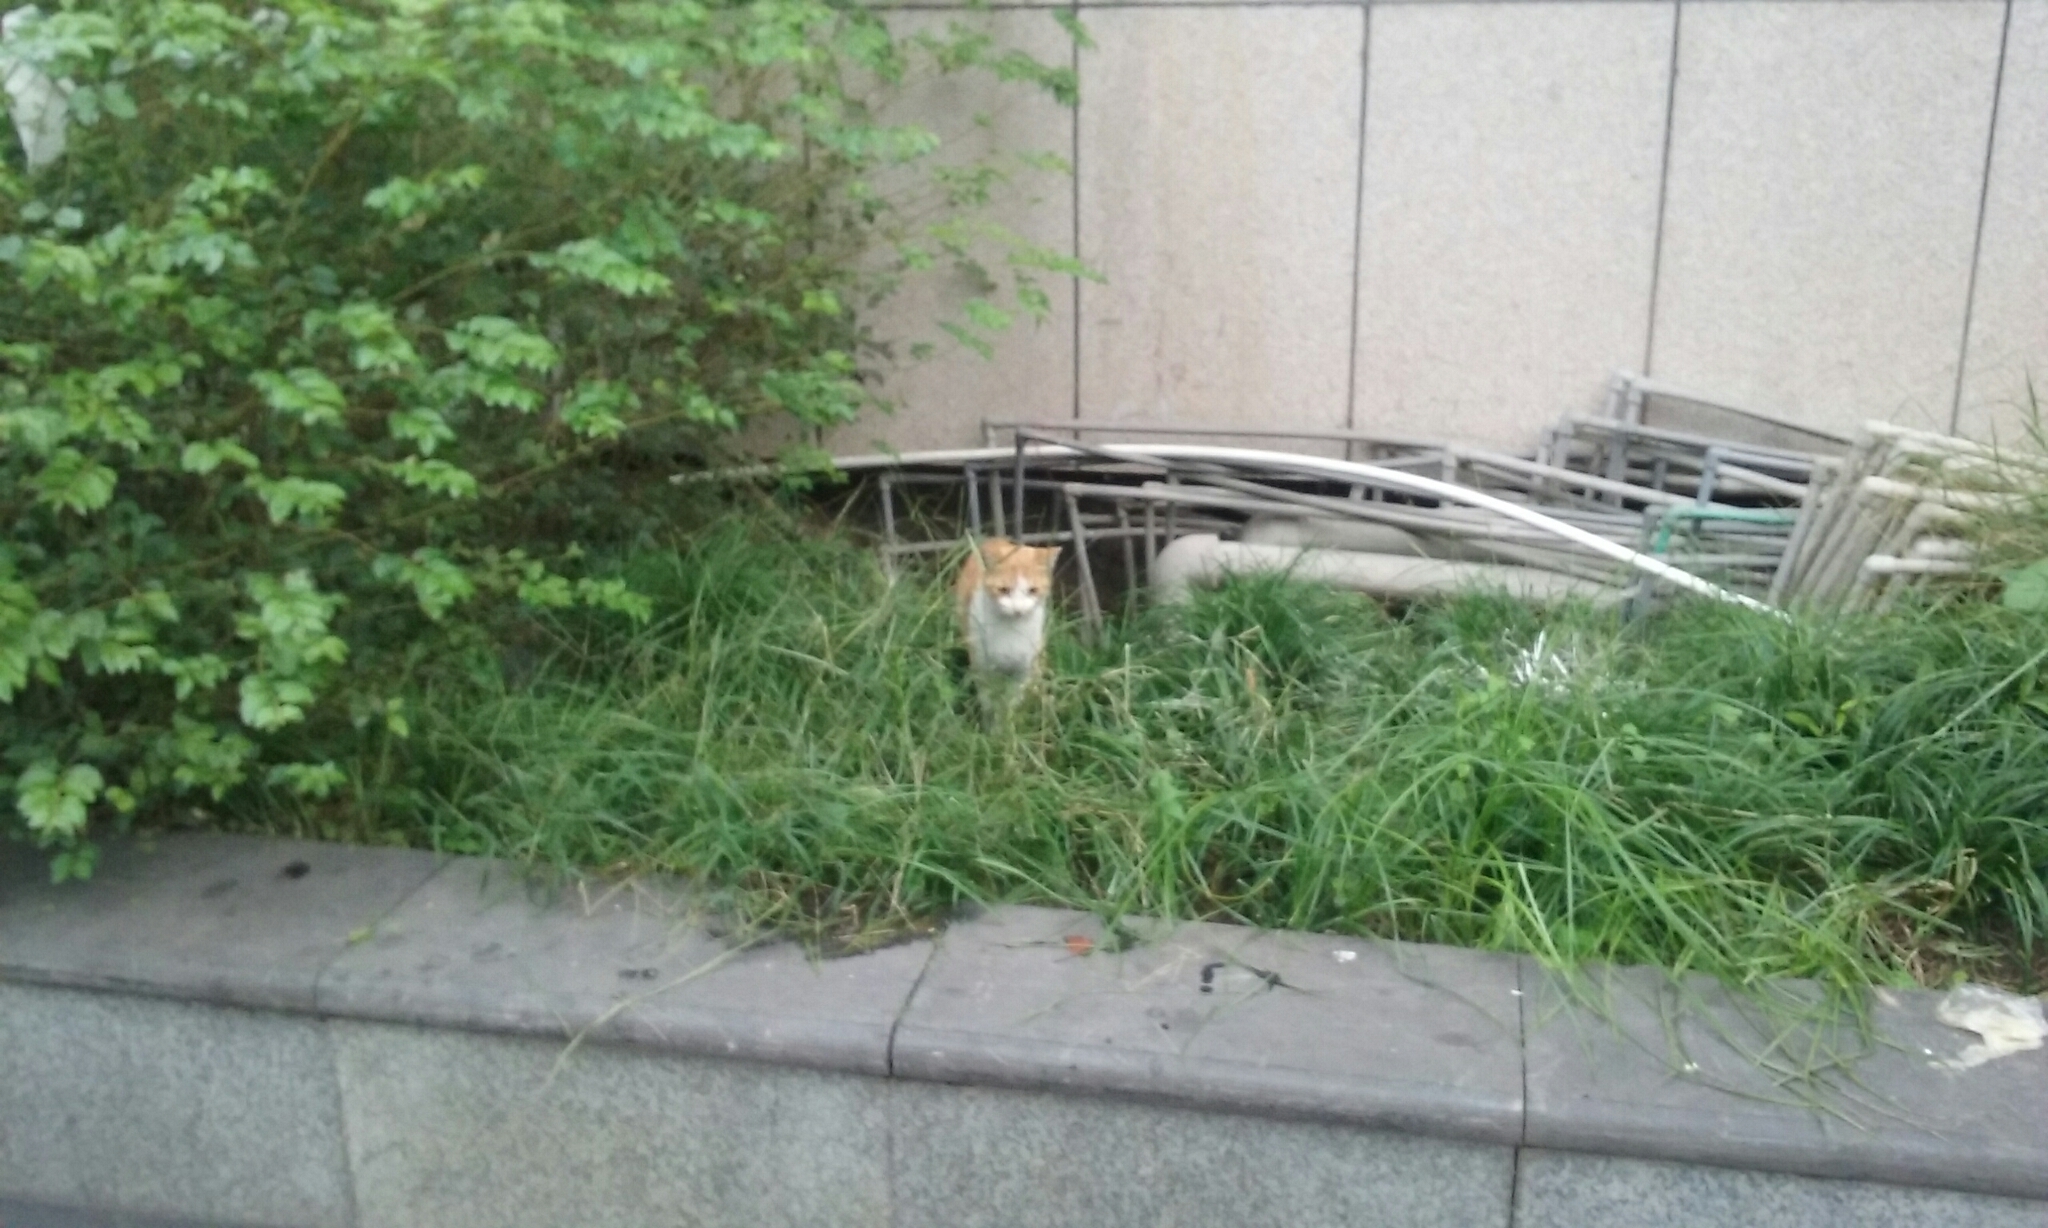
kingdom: Animalia
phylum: Chordata
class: Mammalia
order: Carnivora
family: Felidae
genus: Felis
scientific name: Felis catus
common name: Domestic cat
